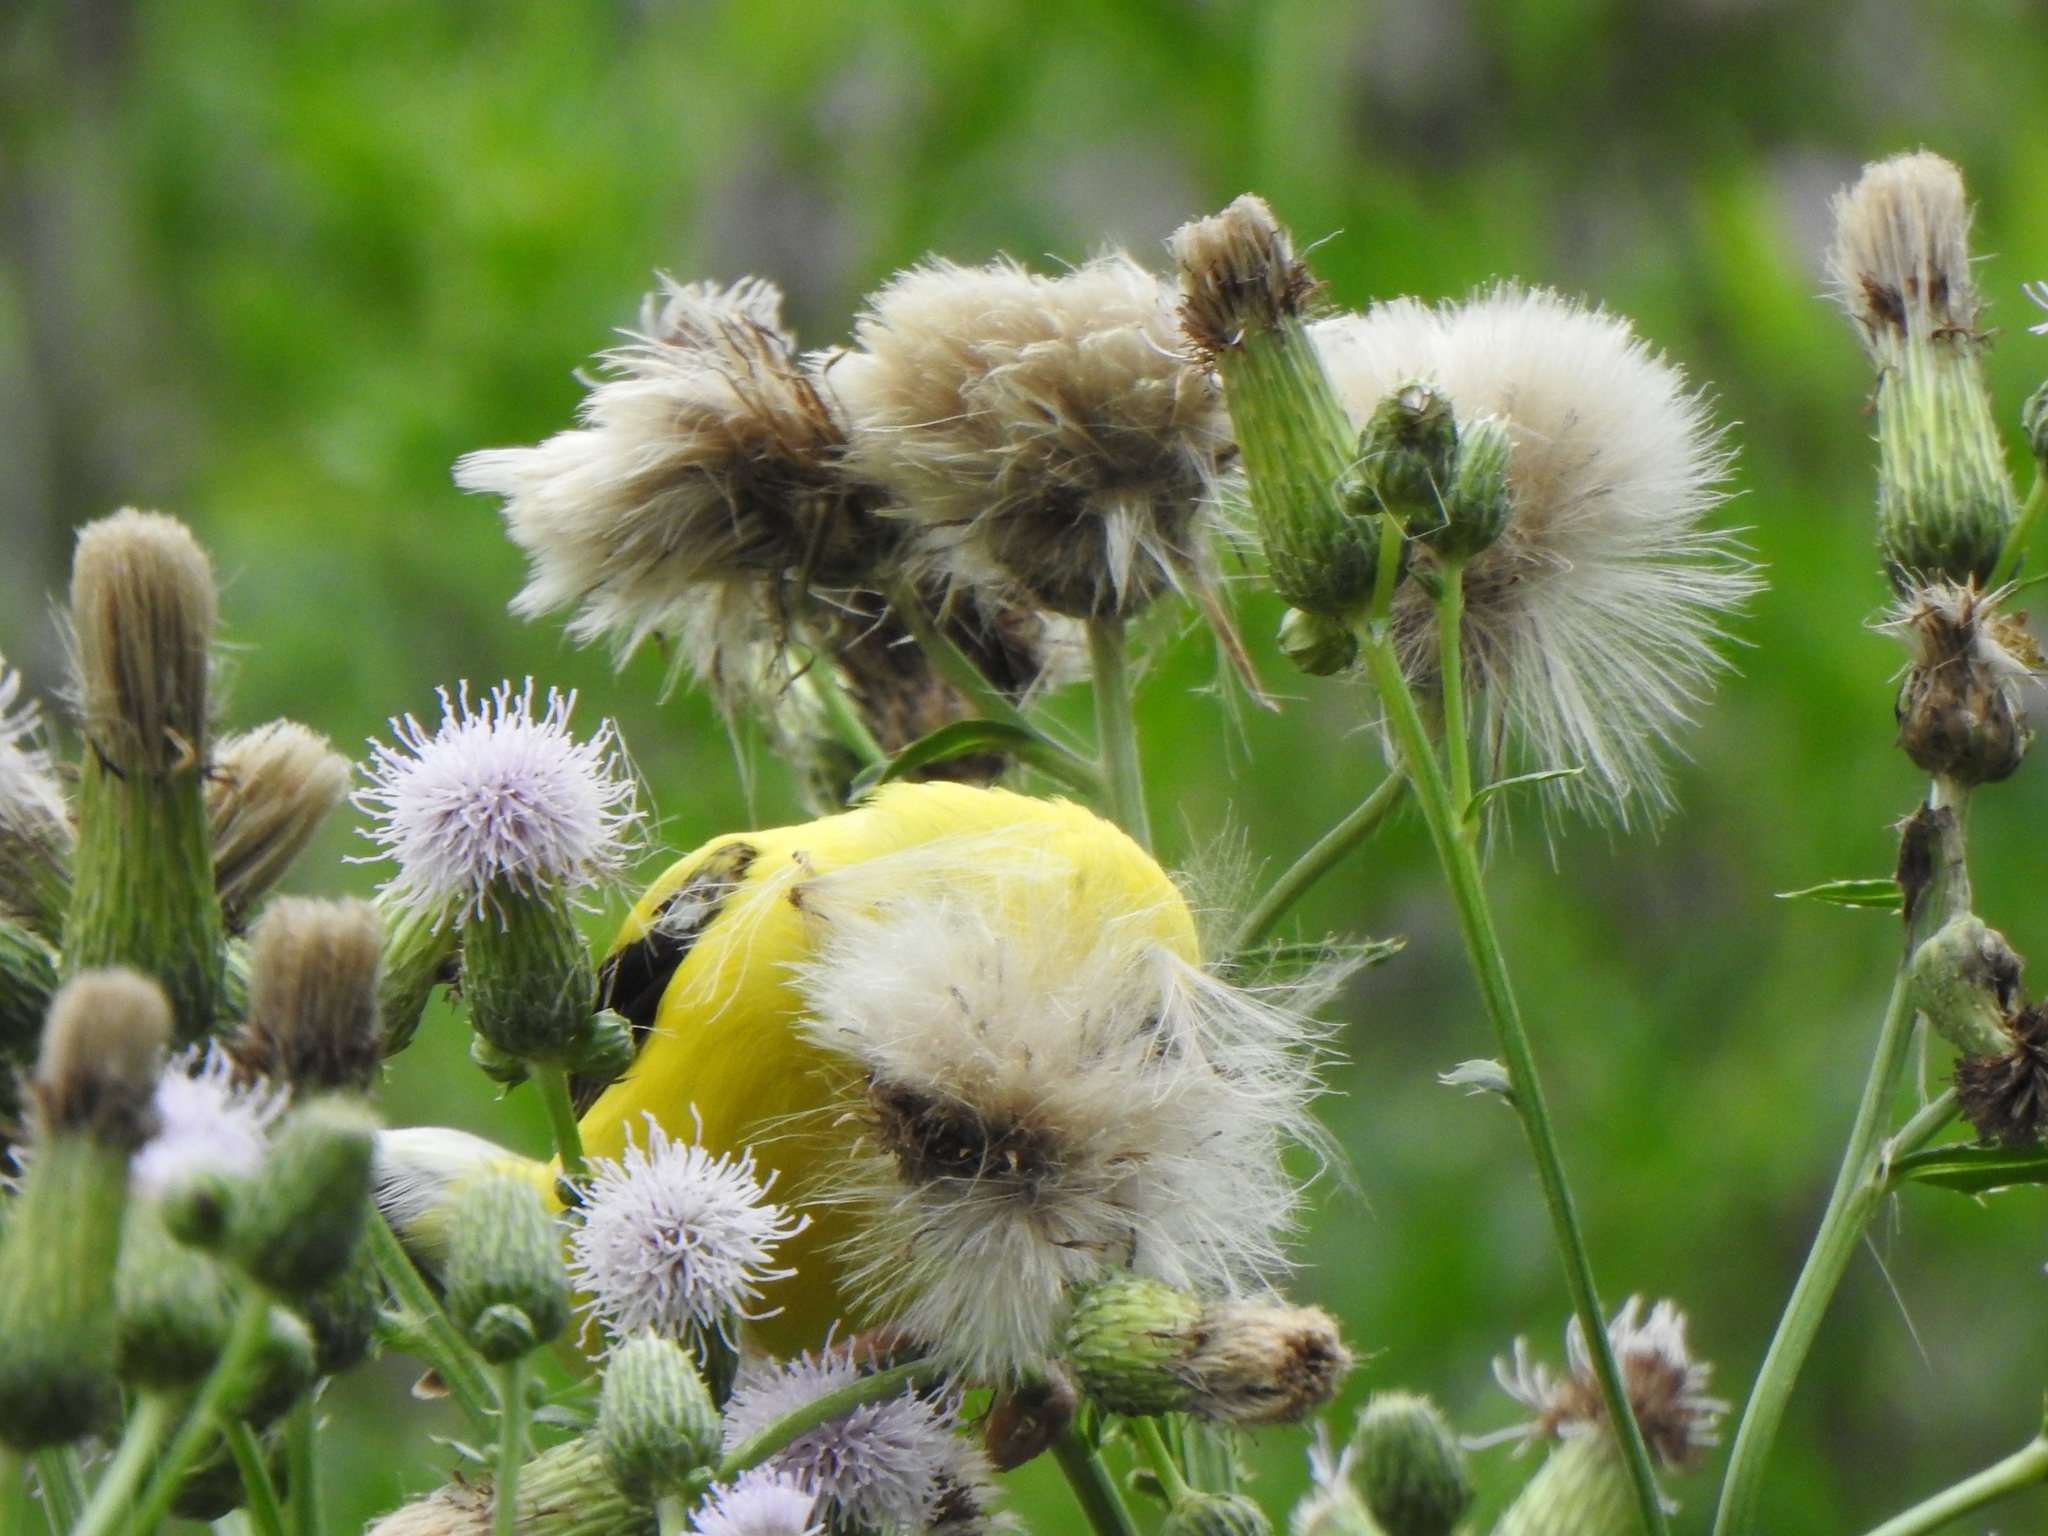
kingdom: Animalia
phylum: Chordata
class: Aves
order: Passeriformes
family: Fringillidae
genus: Spinus
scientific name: Spinus tristis
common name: American goldfinch
